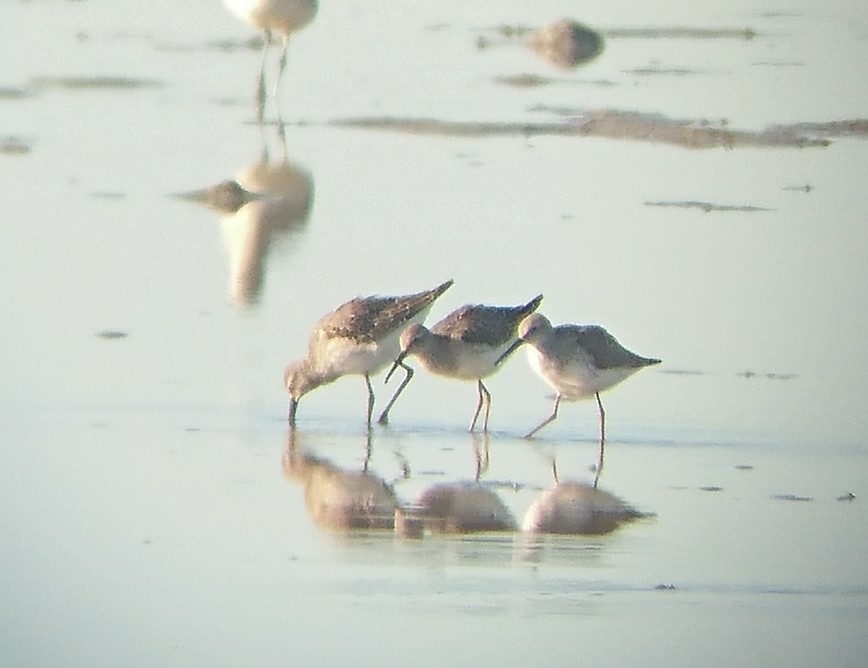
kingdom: Animalia
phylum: Chordata
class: Aves
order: Charadriiformes
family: Scolopacidae
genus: Calidris
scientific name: Calidris himantopus
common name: Stilt sandpiper
